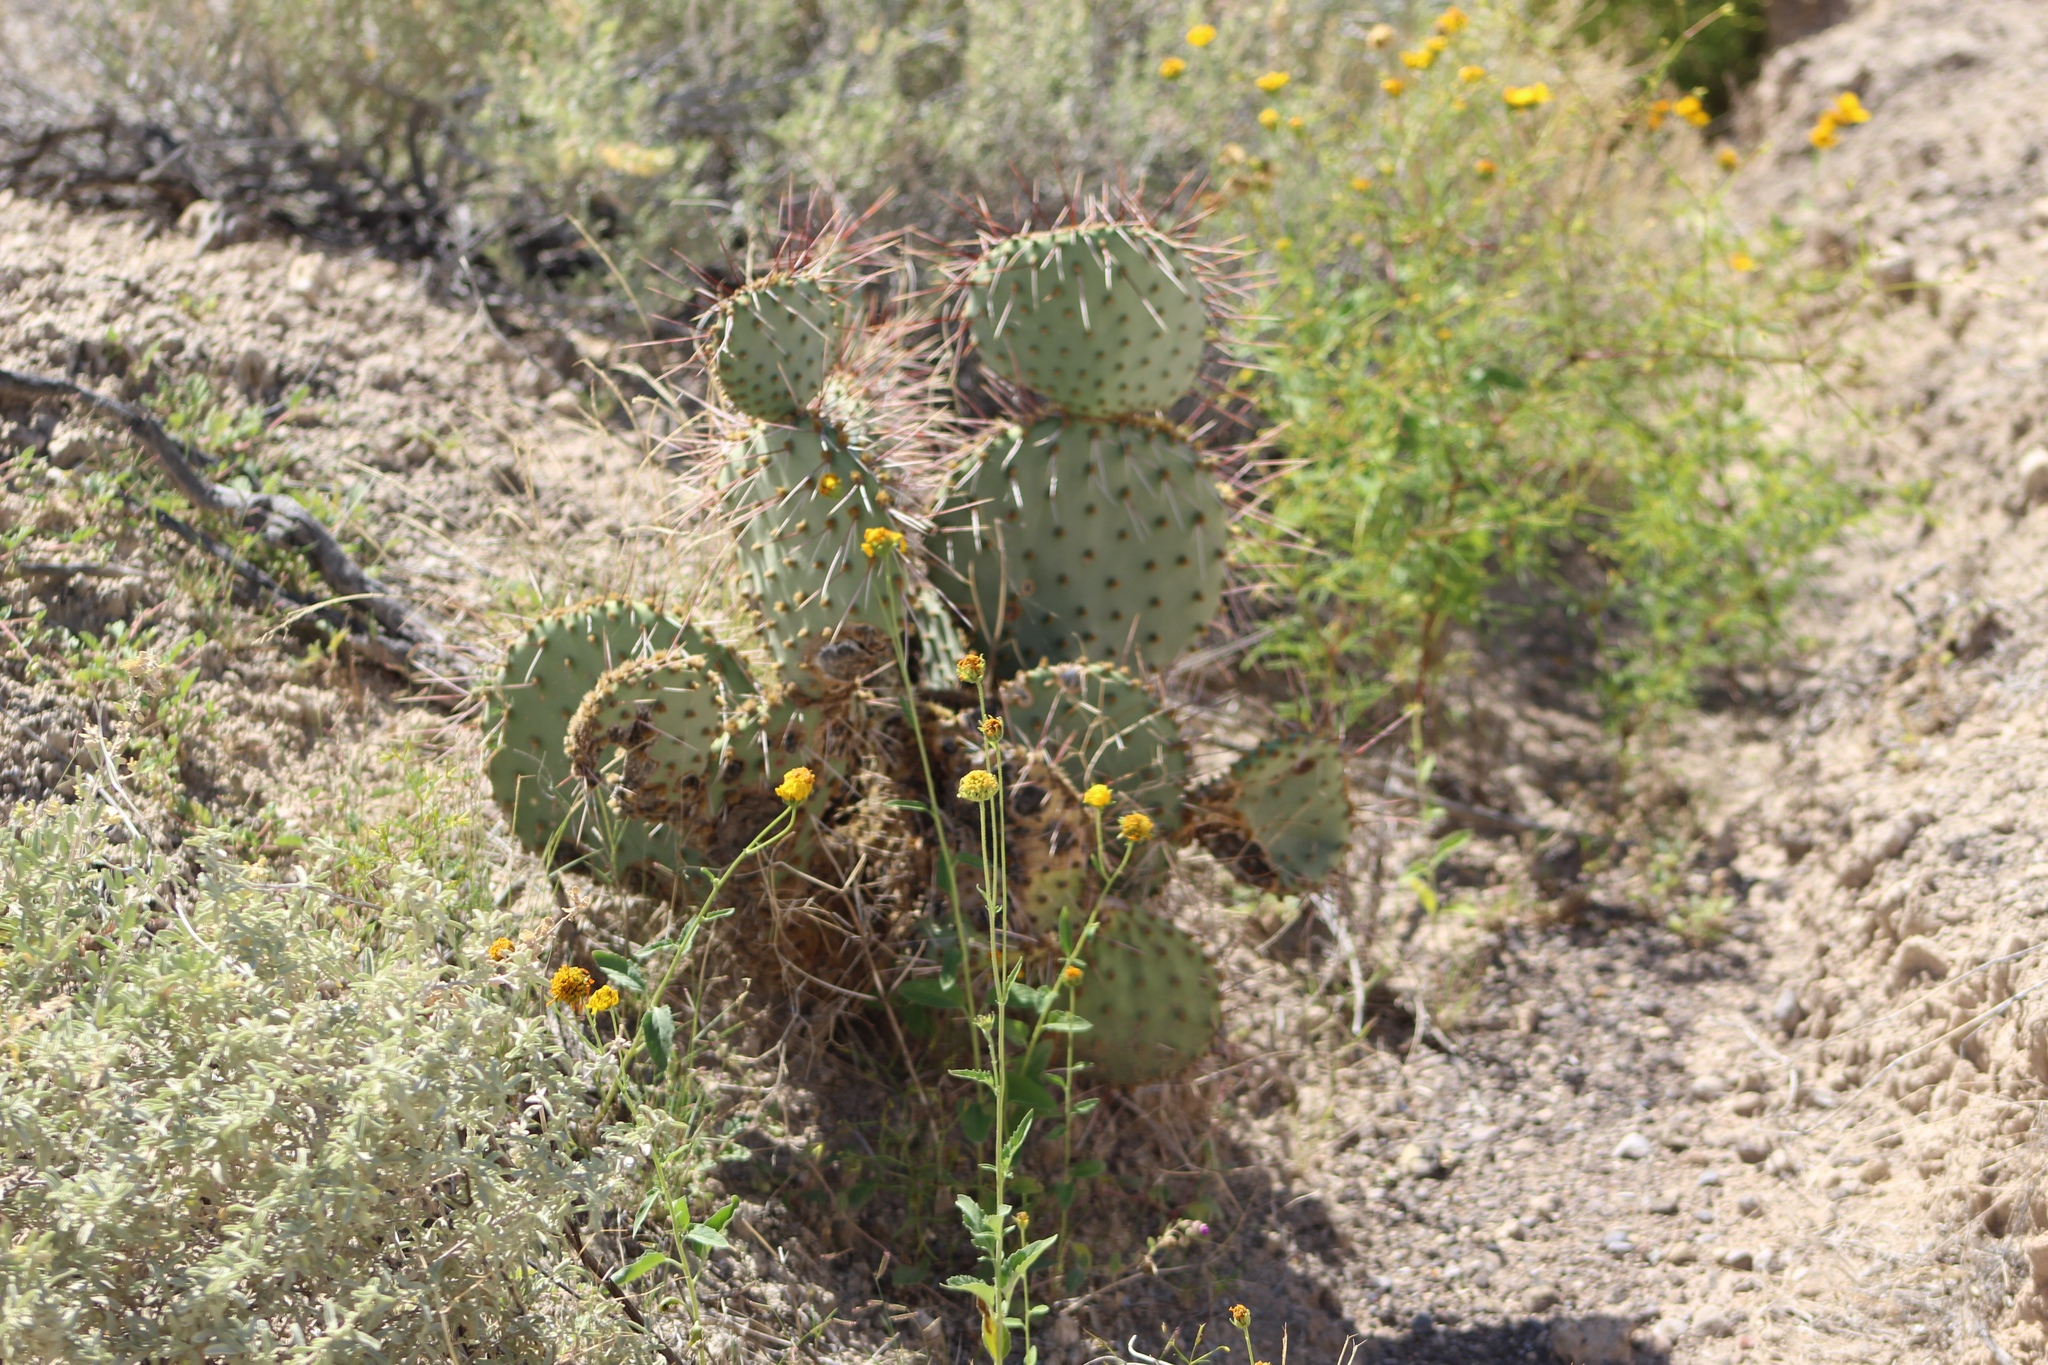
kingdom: Plantae
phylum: Tracheophyta
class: Magnoliopsida
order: Caryophyllales
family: Cactaceae
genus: Opuntia
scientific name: Opuntia macrocentra
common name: Purple prickly-pear
